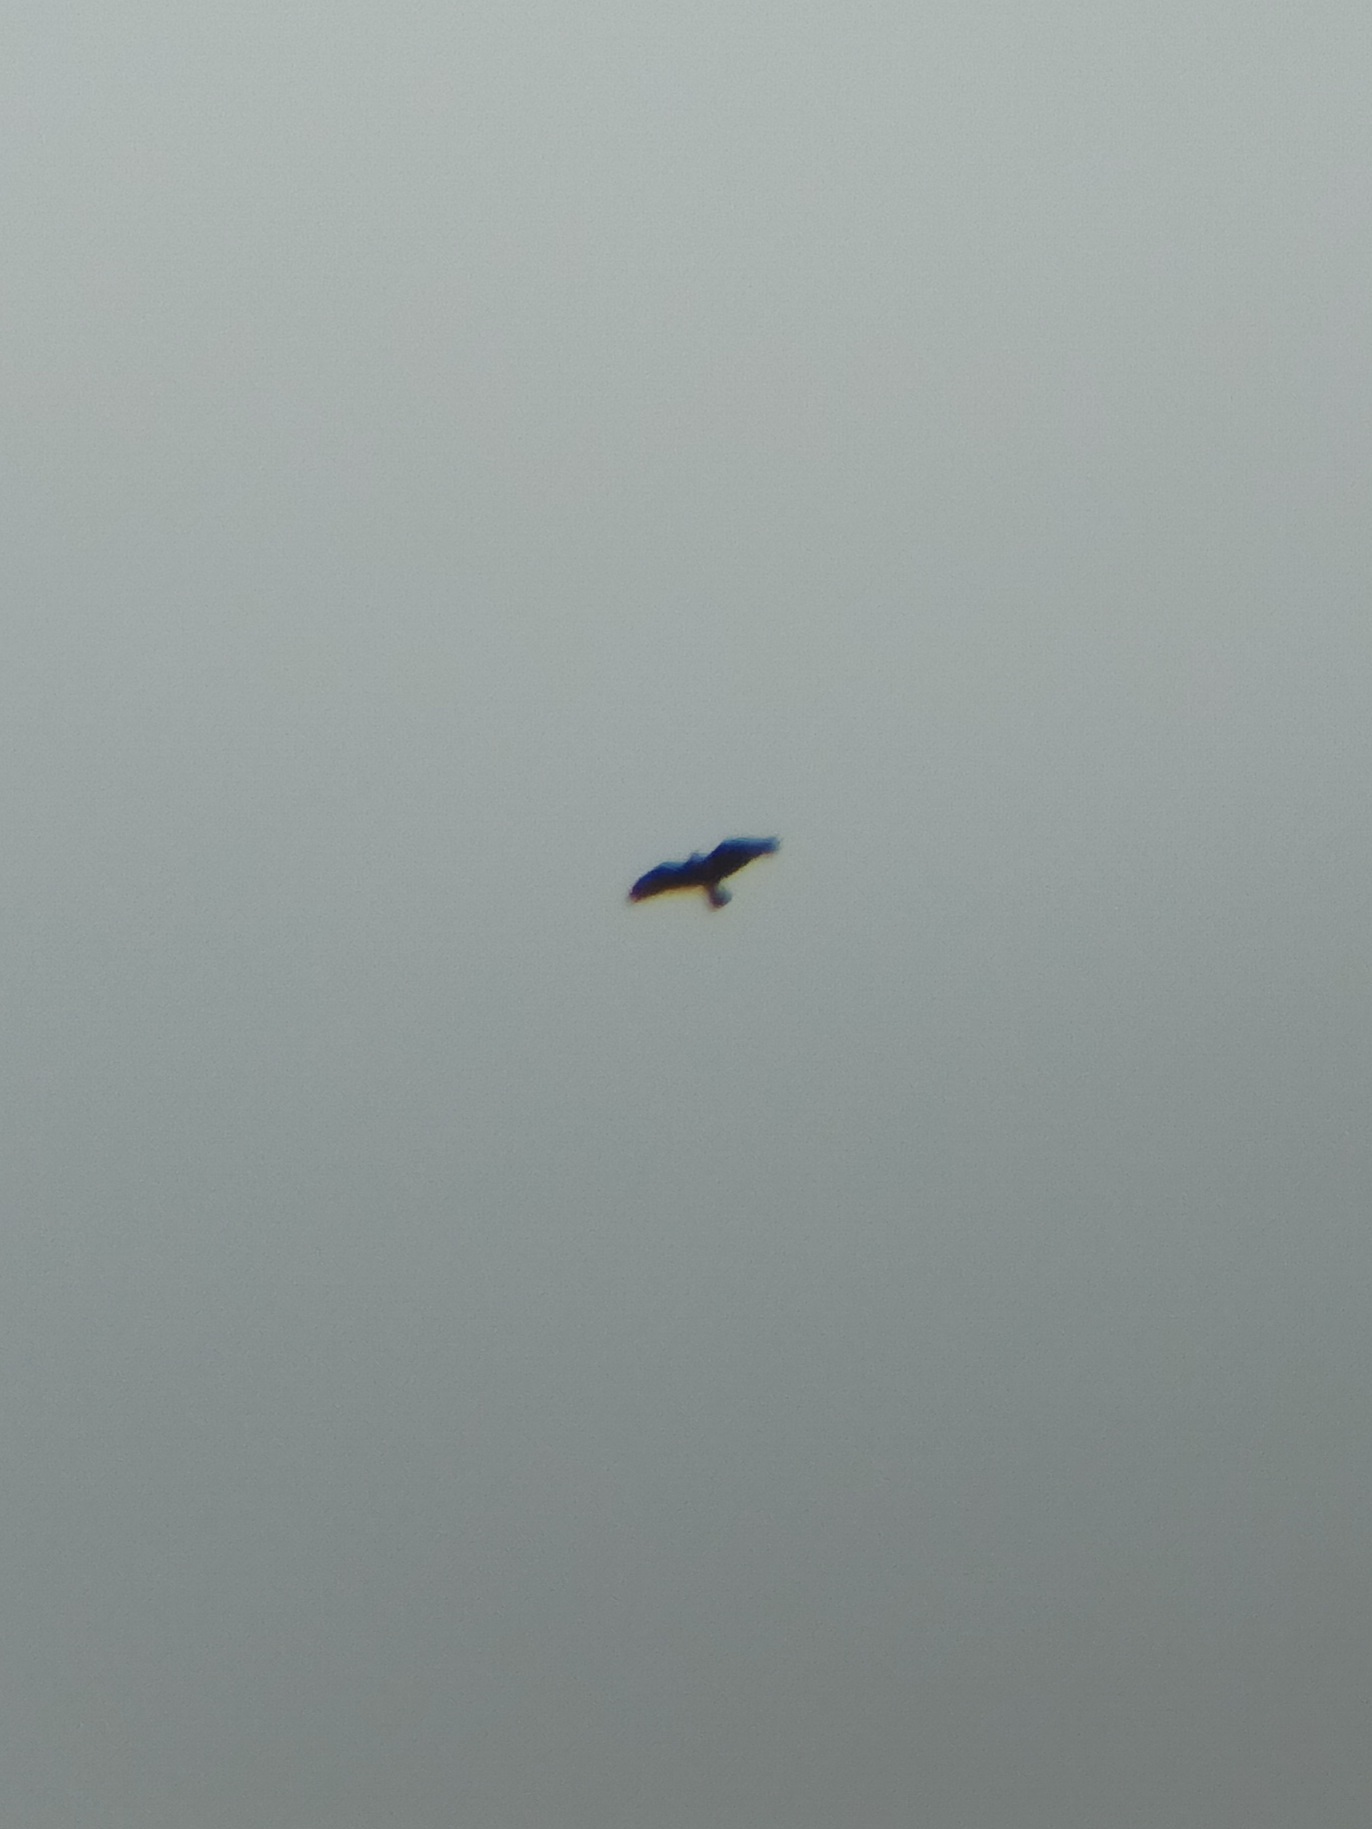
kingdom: Animalia
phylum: Chordata
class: Aves
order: Accipitriformes
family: Accipitridae
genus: Buteo
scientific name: Buteo buteo
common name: Common buzzard
